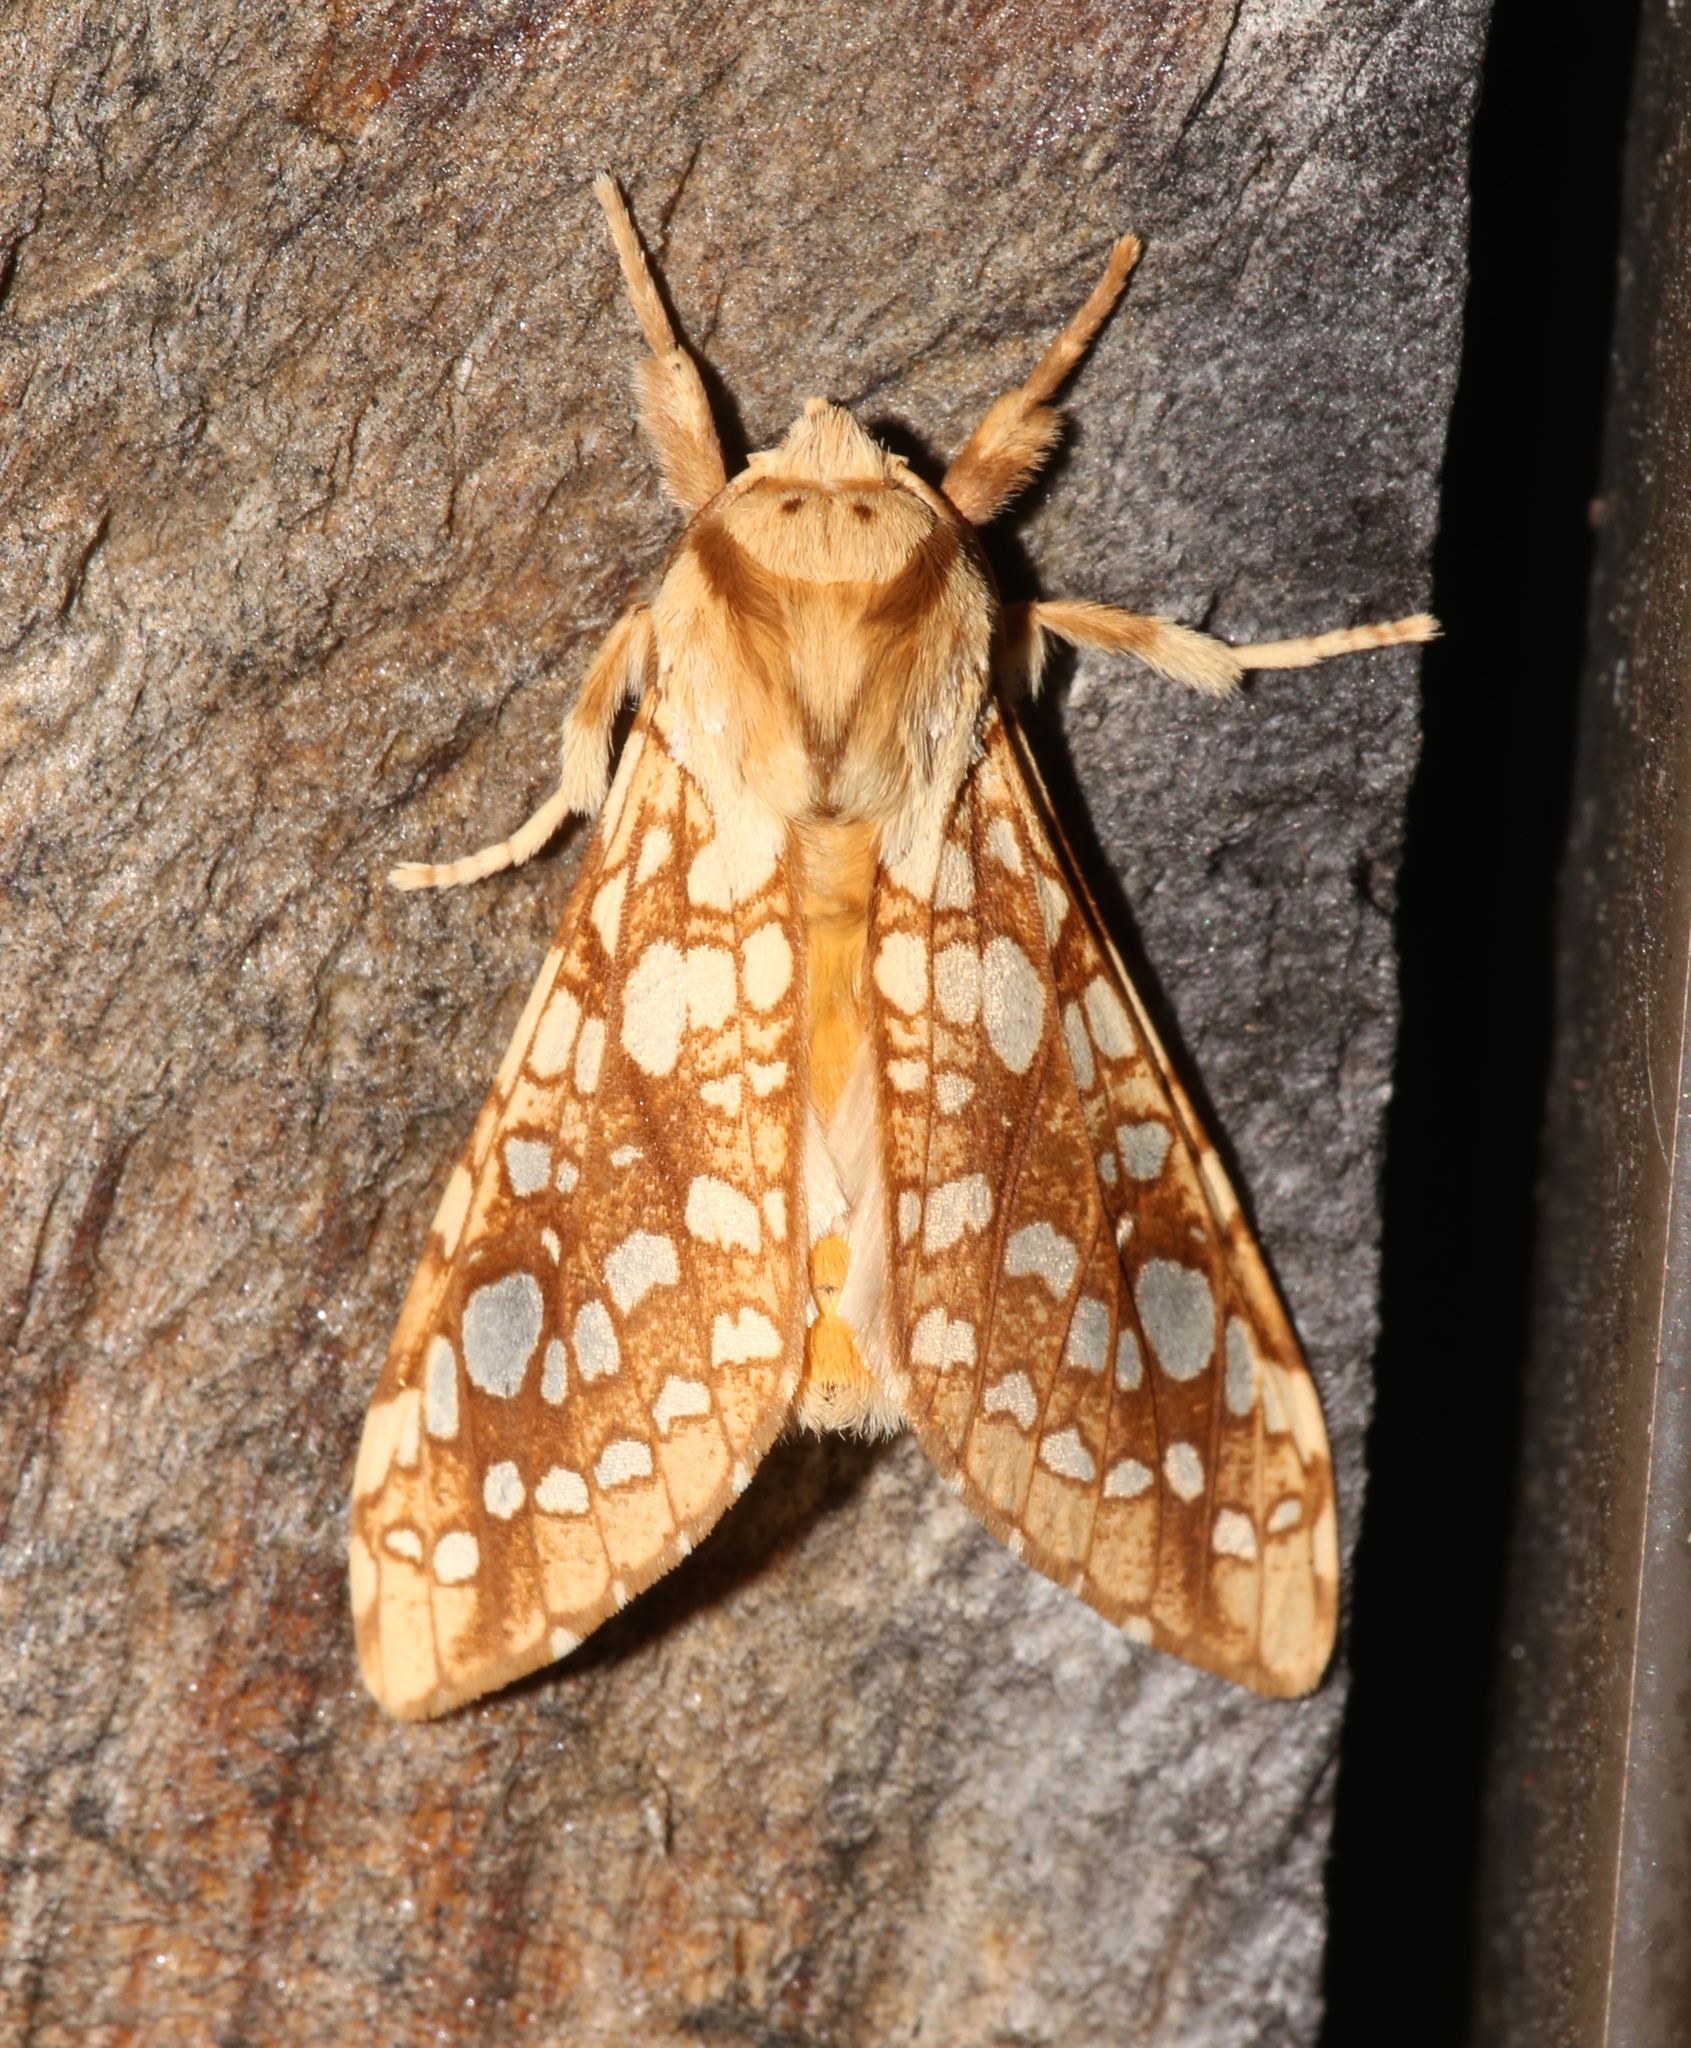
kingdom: Animalia
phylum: Arthropoda
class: Insecta
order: Lepidoptera
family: Erebidae
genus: Lophocampa
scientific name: Lophocampa caryae
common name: Hickory tussock moth
